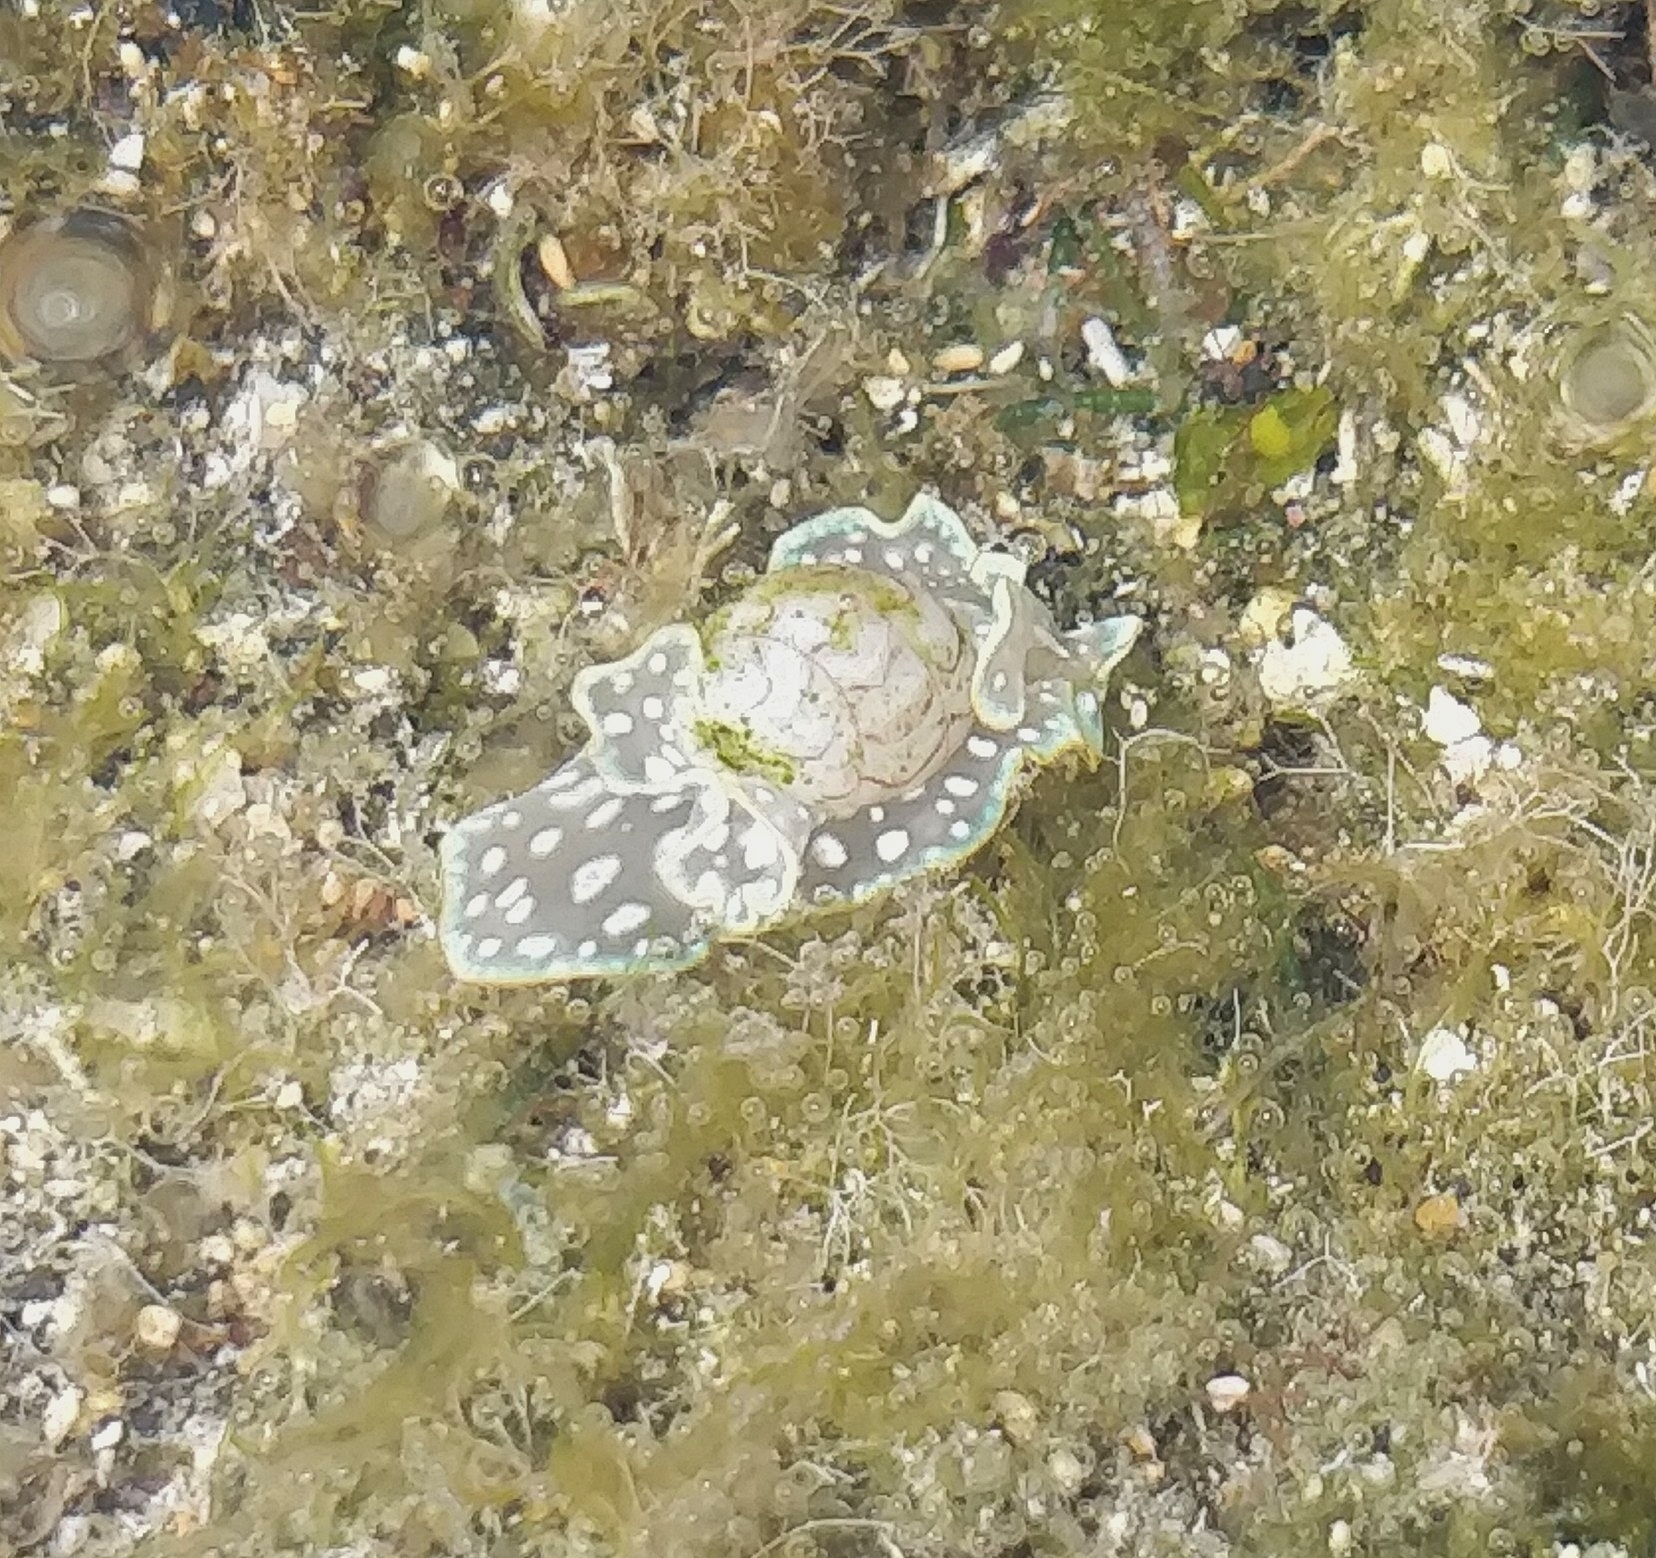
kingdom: Animalia
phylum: Mollusca
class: Gastropoda
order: Cephalaspidea
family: Aplustridae
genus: Micromelo
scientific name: Micromelo undatus
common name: Miniature melo
